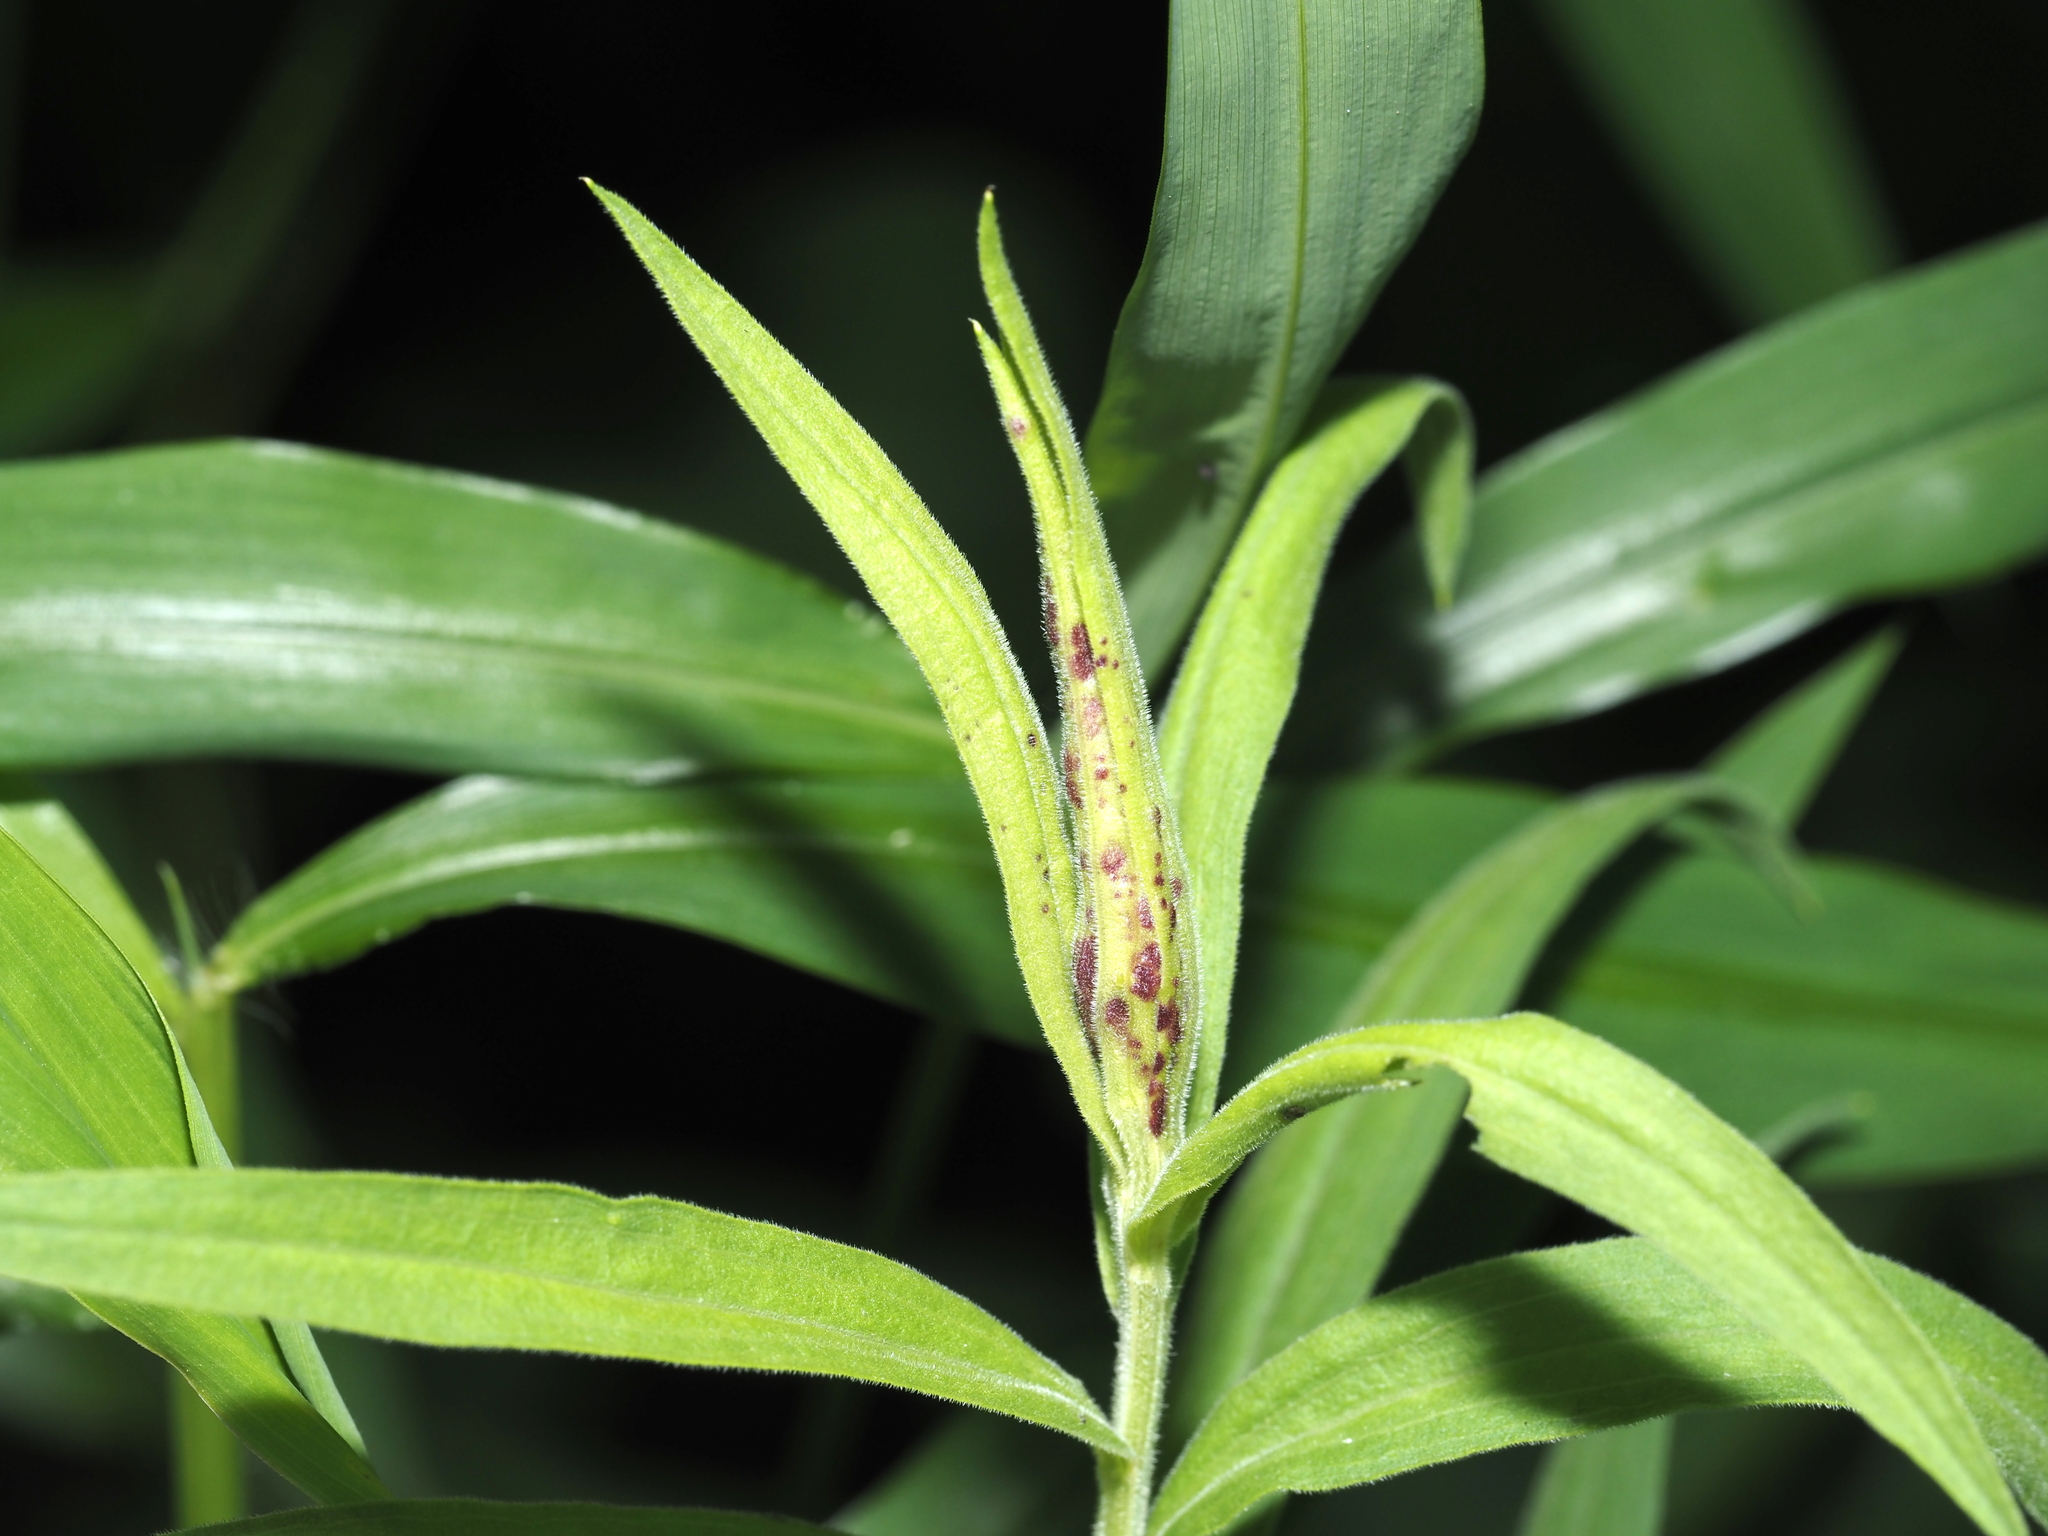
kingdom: Animalia
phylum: Arthropoda
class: Insecta
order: Diptera
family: Cecidomyiidae
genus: Dasineura
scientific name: Dasineura carbonaria
